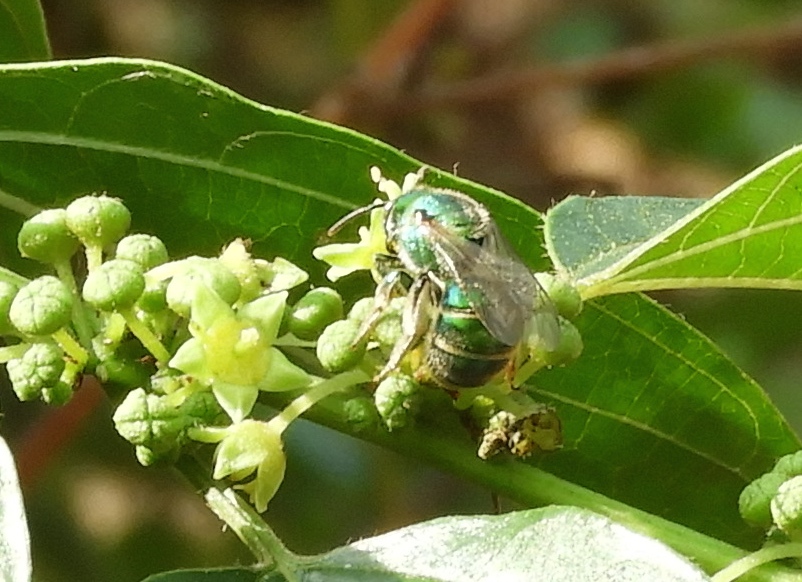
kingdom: Animalia
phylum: Arthropoda
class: Insecta
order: Hymenoptera
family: Halictidae
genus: Augochloropsis
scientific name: Augochloropsis
